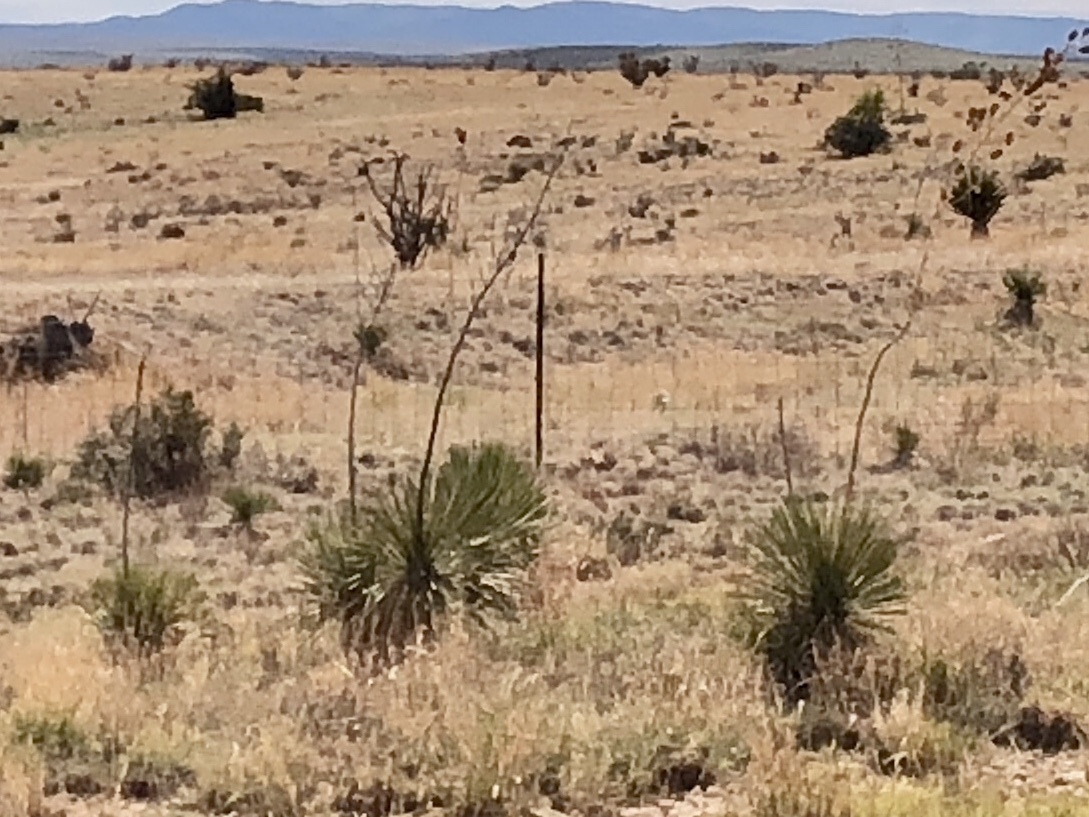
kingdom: Plantae
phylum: Tracheophyta
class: Liliopsida
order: Asparagales
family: Asparagaceae
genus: Yucca
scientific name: Yucca elata
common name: Palmella
